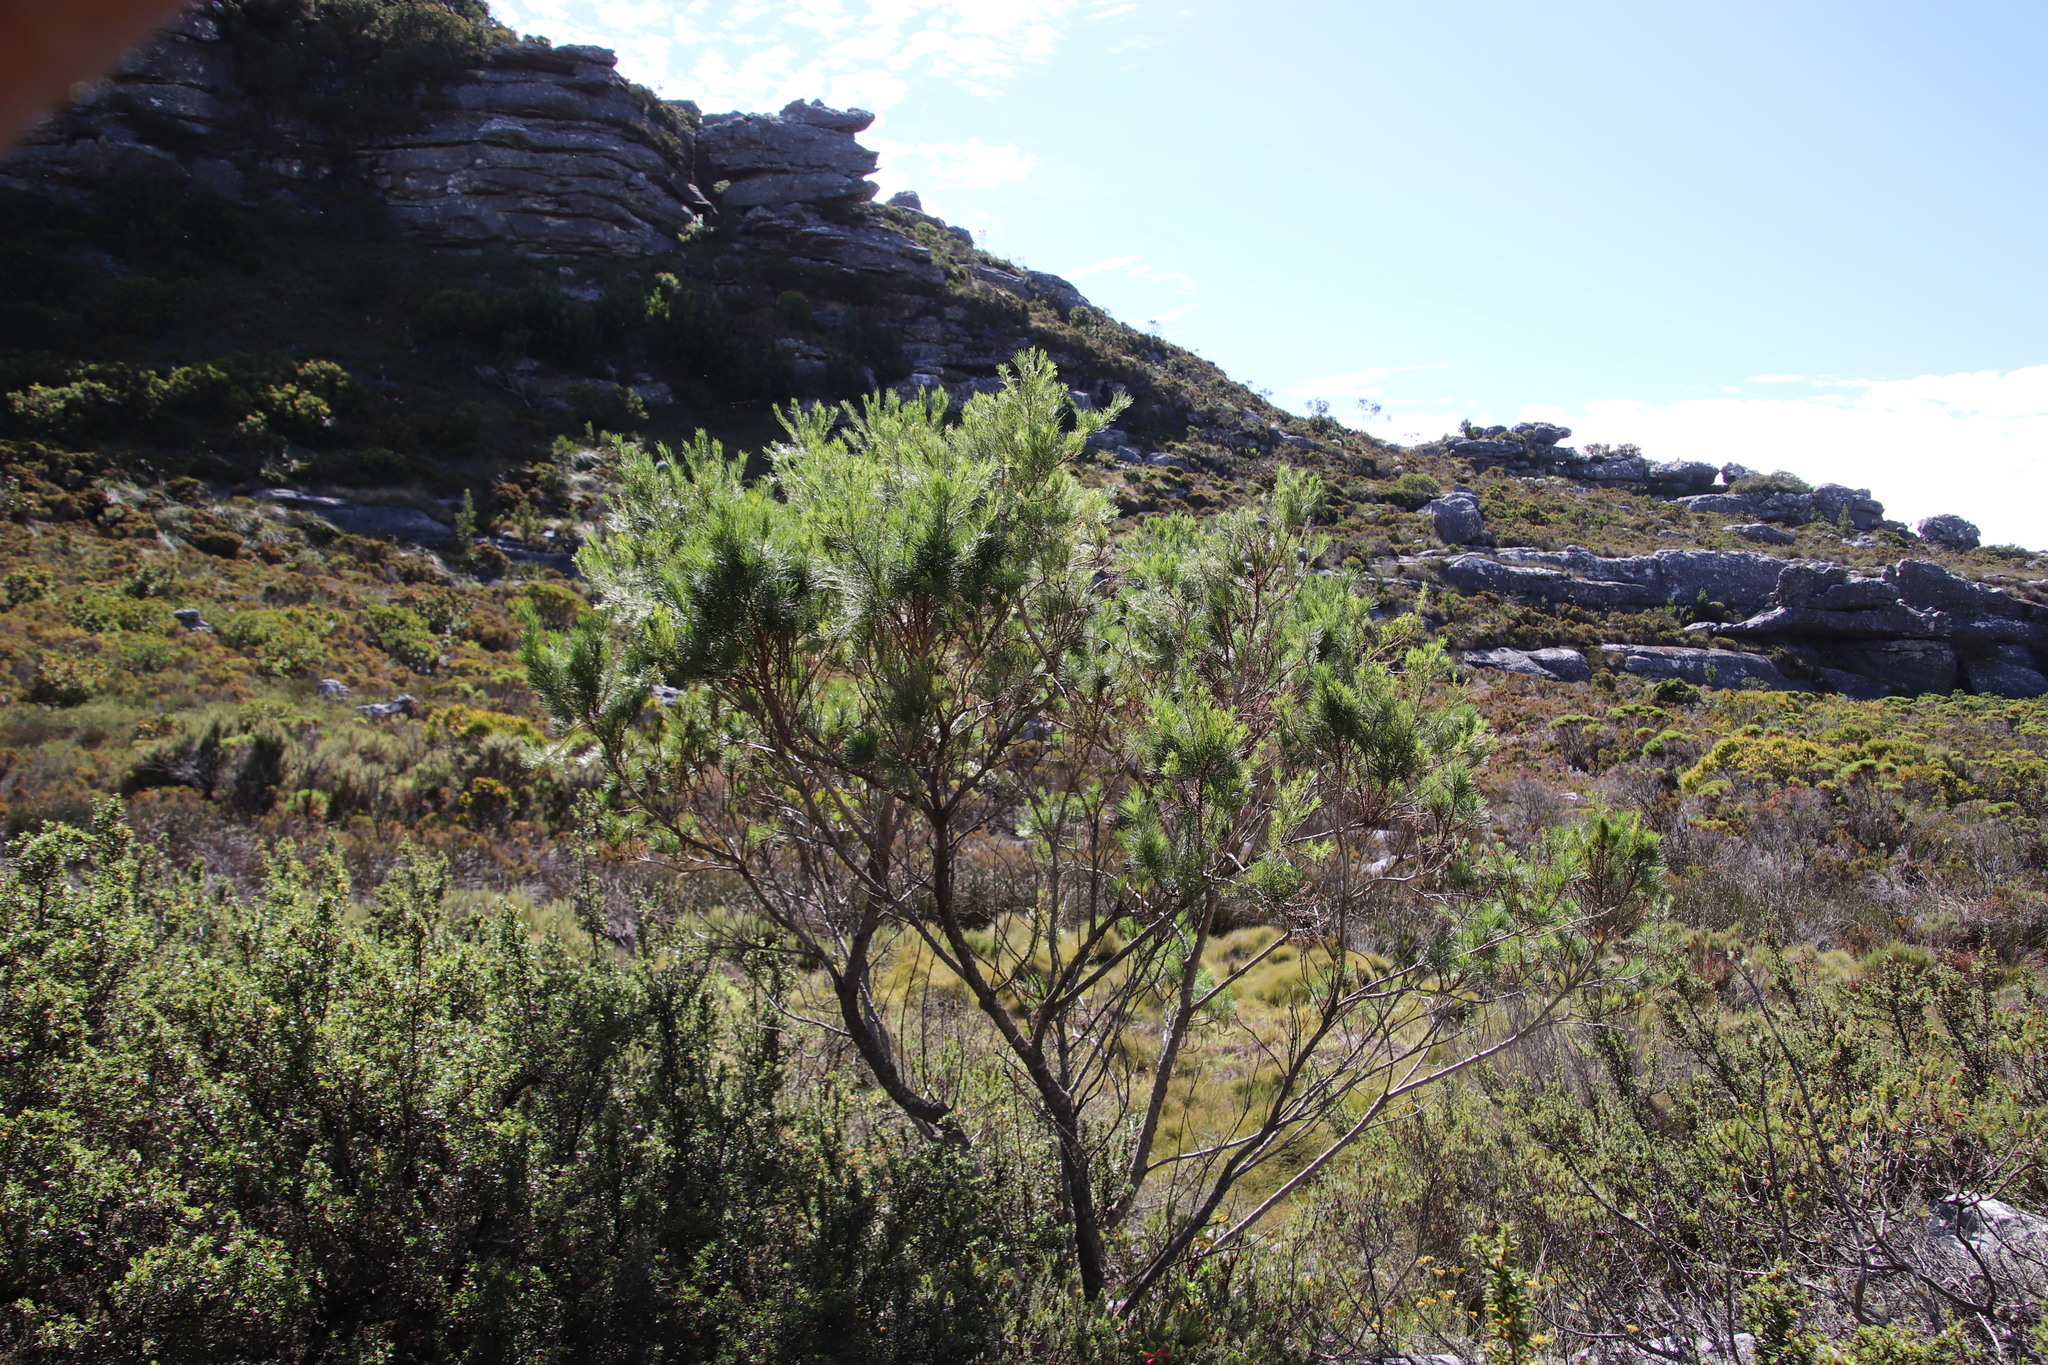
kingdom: Plantae
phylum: Tracheophyta
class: Magnoliopsida
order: Fabales
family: Fabaceae
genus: Psoralea
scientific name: Psoralea pinnata
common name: African scurfpea
